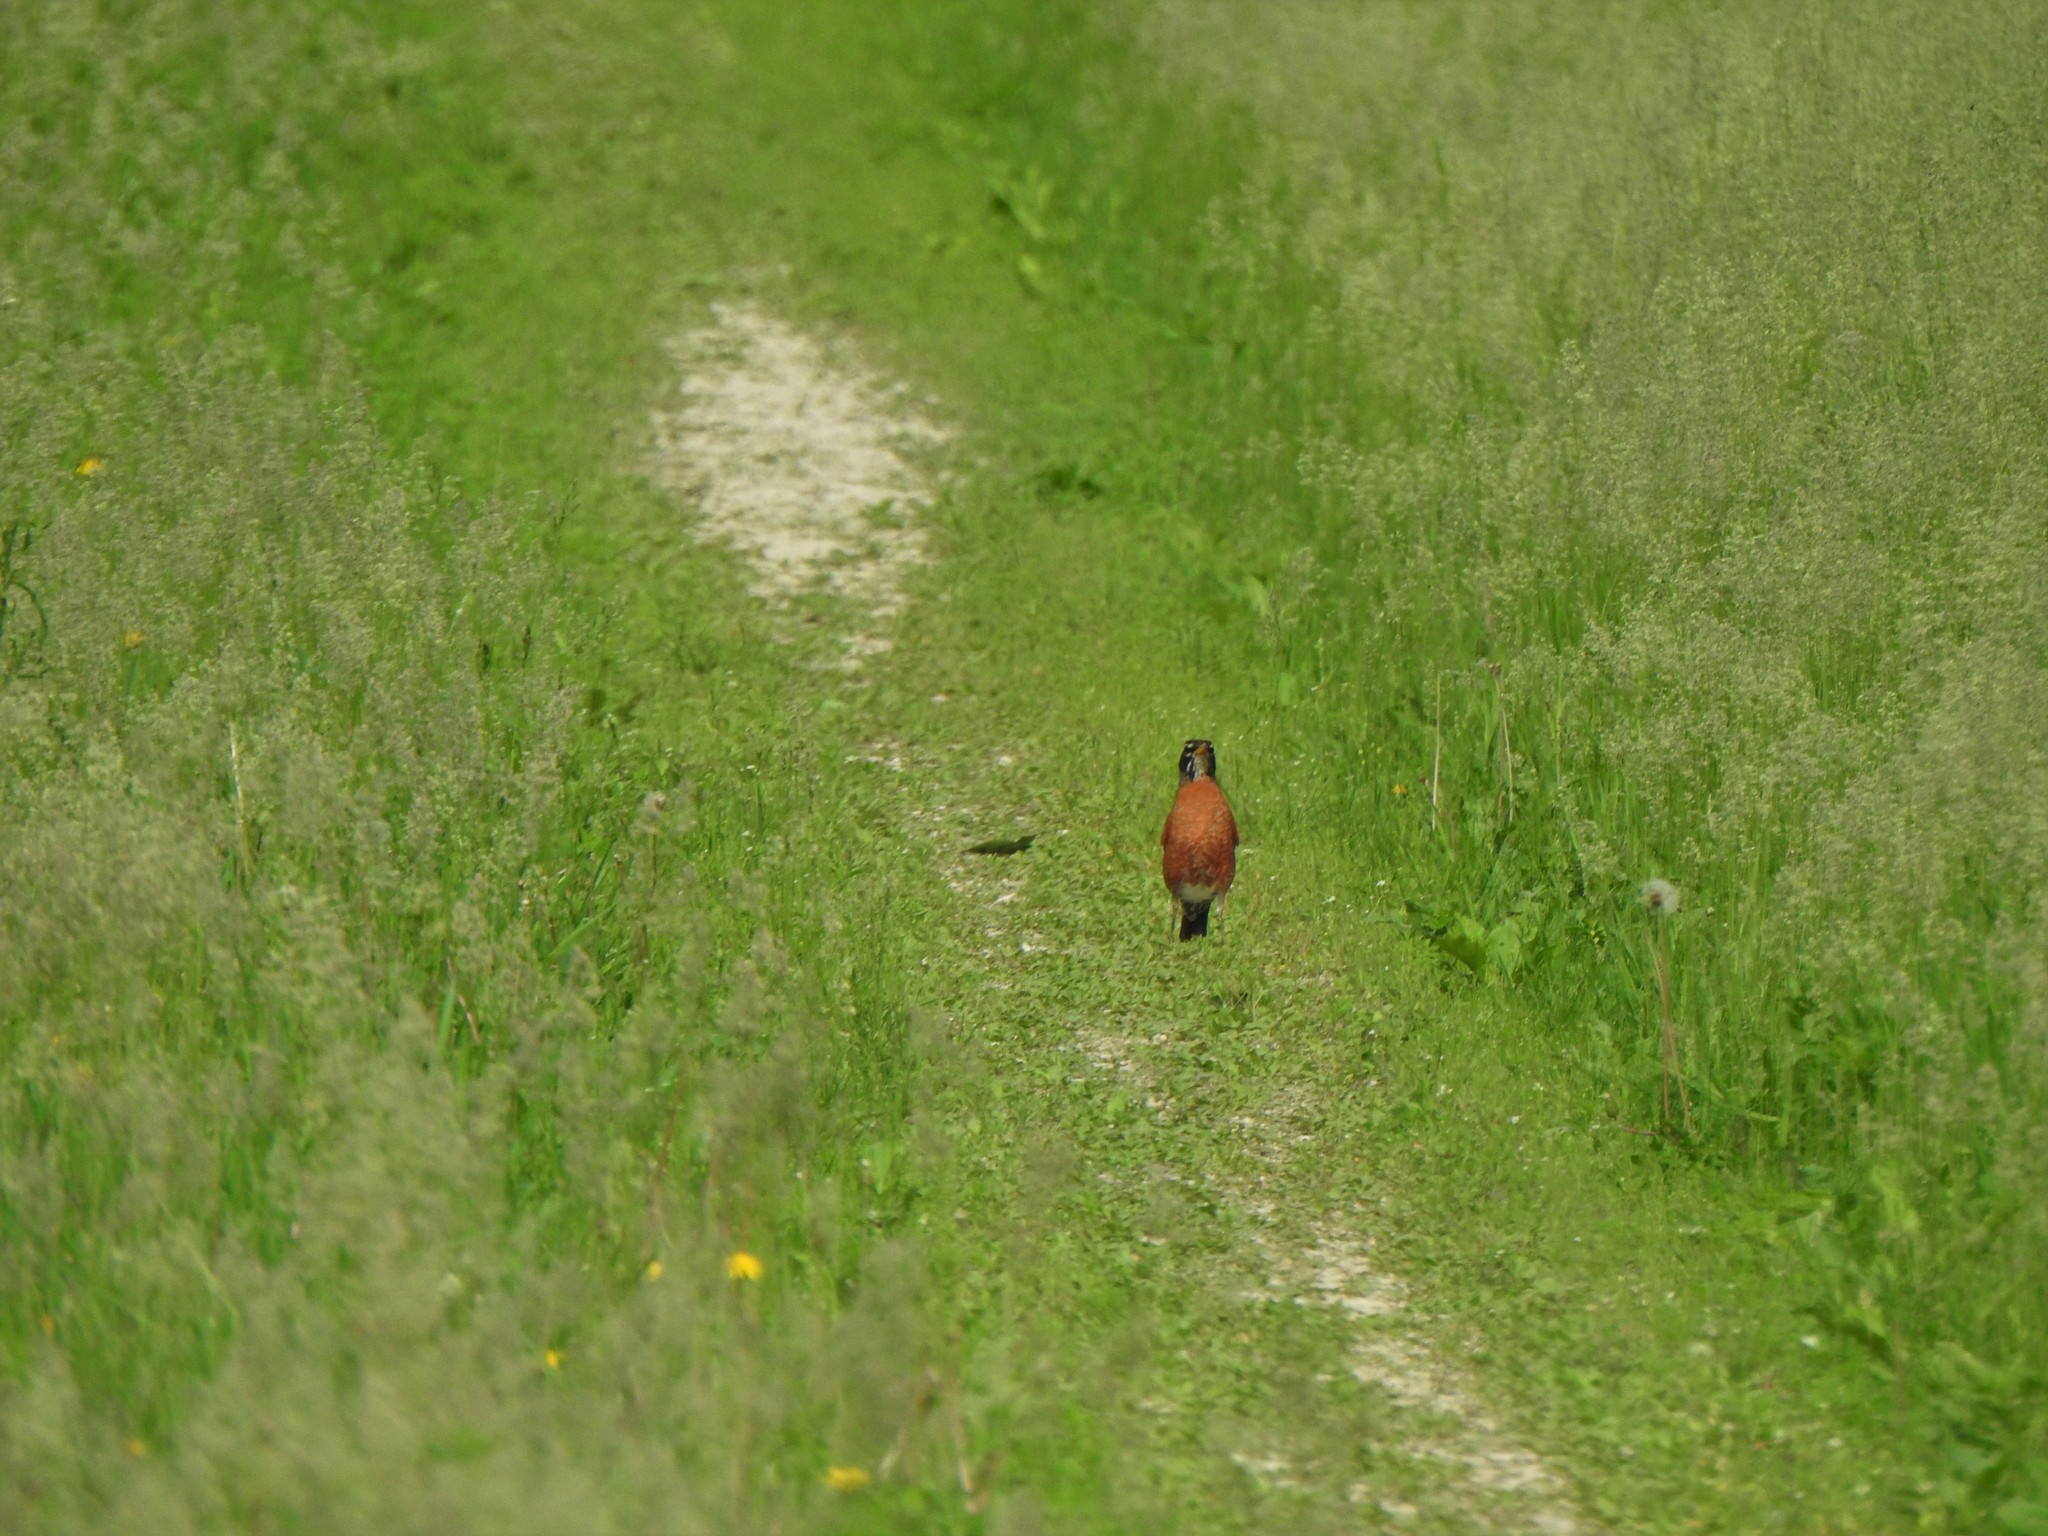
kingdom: Animalia
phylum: Chordata
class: Aves
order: Passeriformes
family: Turdidae
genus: Turdus
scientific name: Turdus migratorius
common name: American robin
